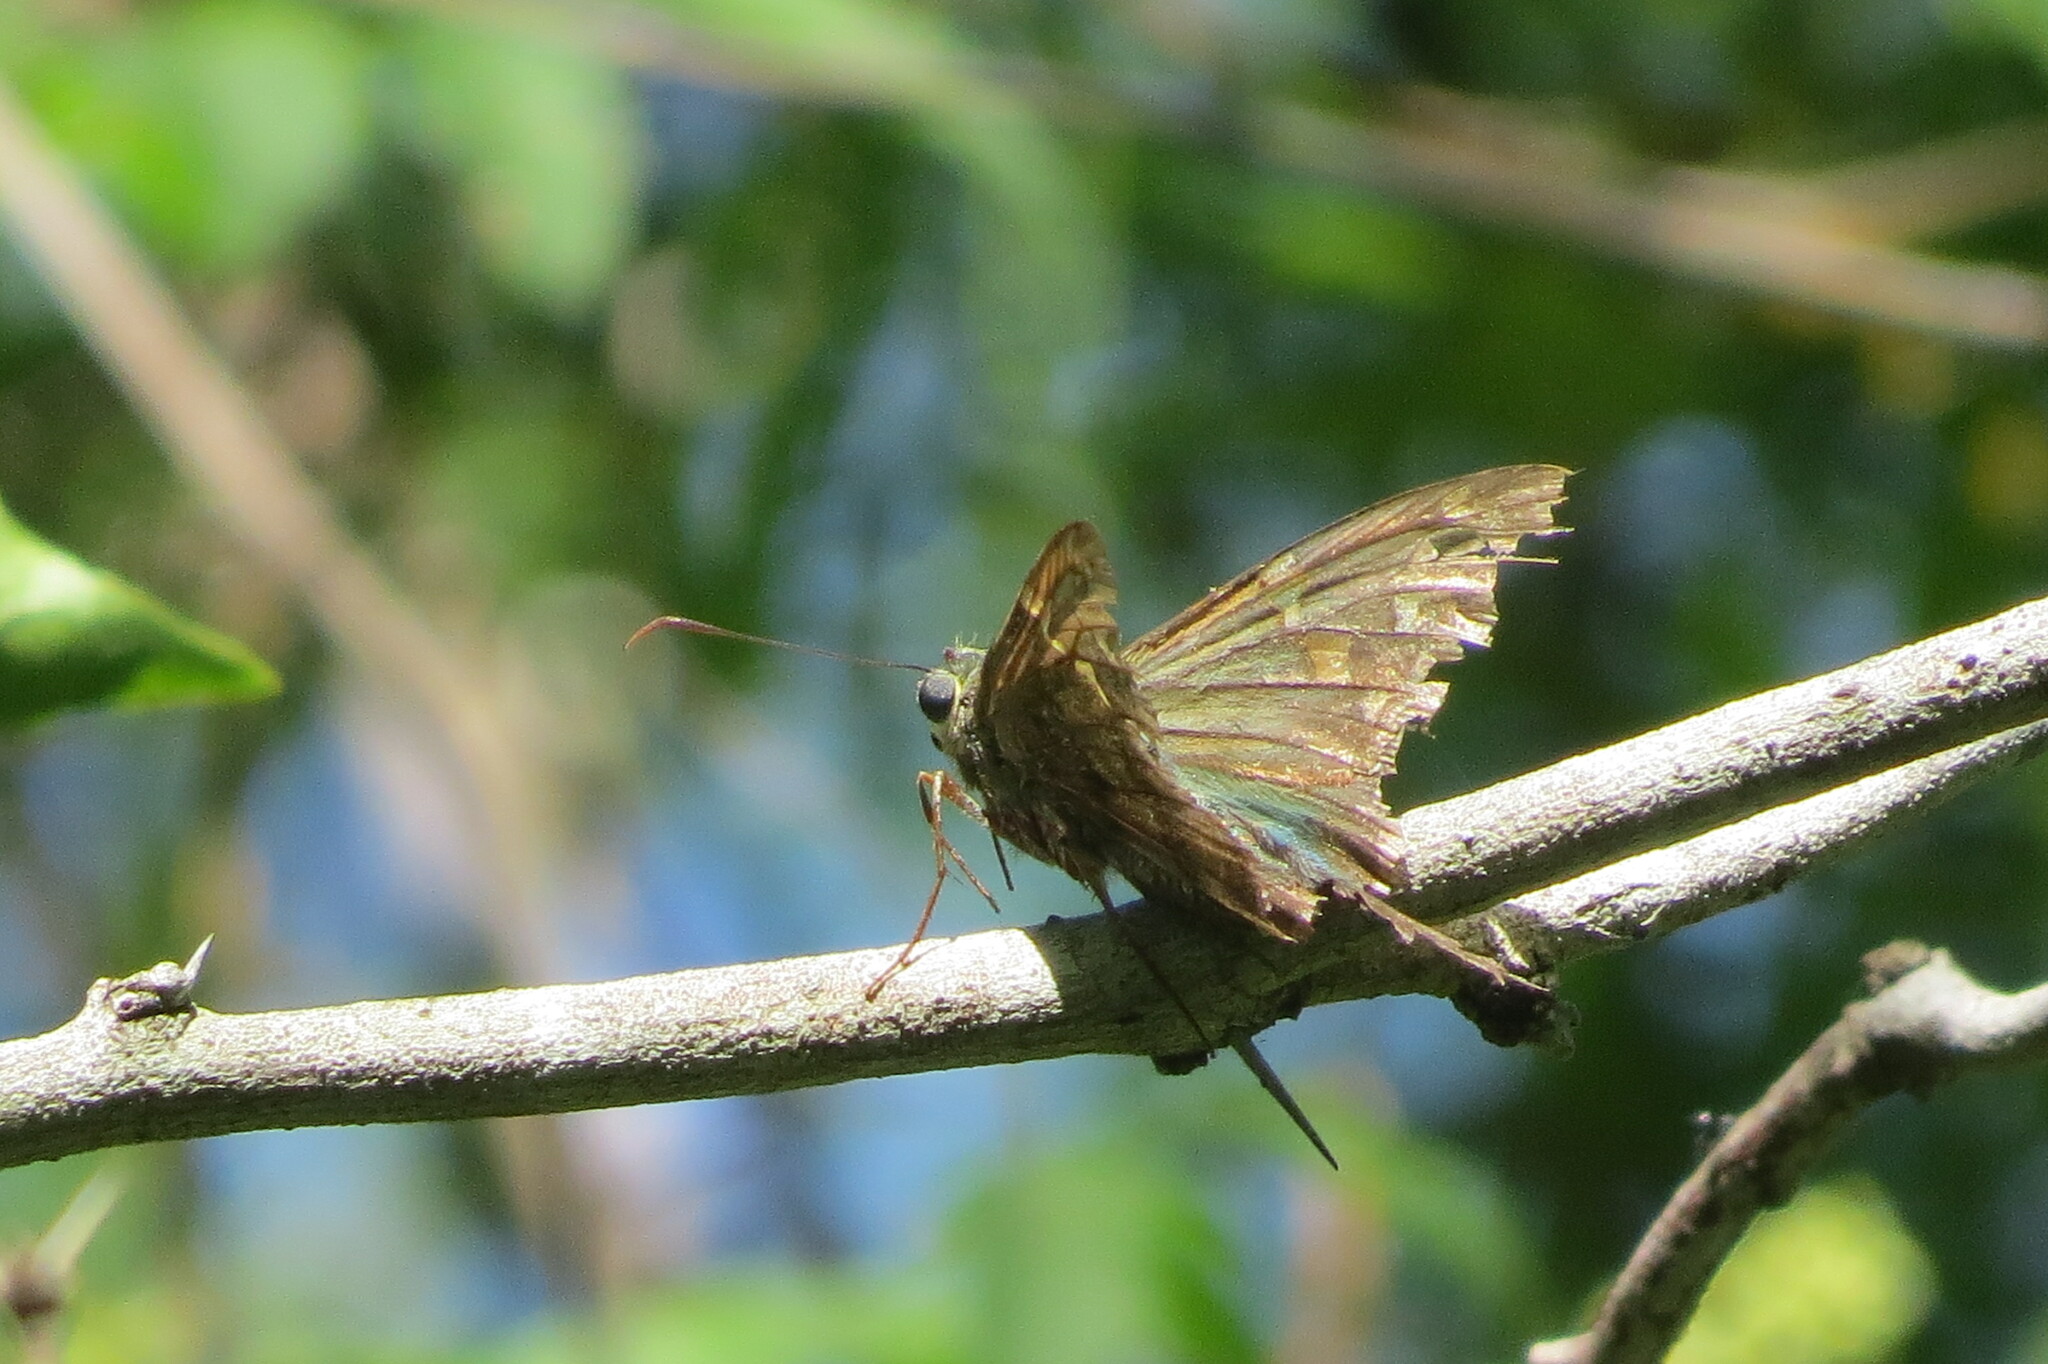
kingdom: Animalia
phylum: Arthropoda
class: Insecta
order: Lepidoptera
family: Hesperiidae
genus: Urbanus
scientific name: Urbanus proteus
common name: Long-tailed skipper
